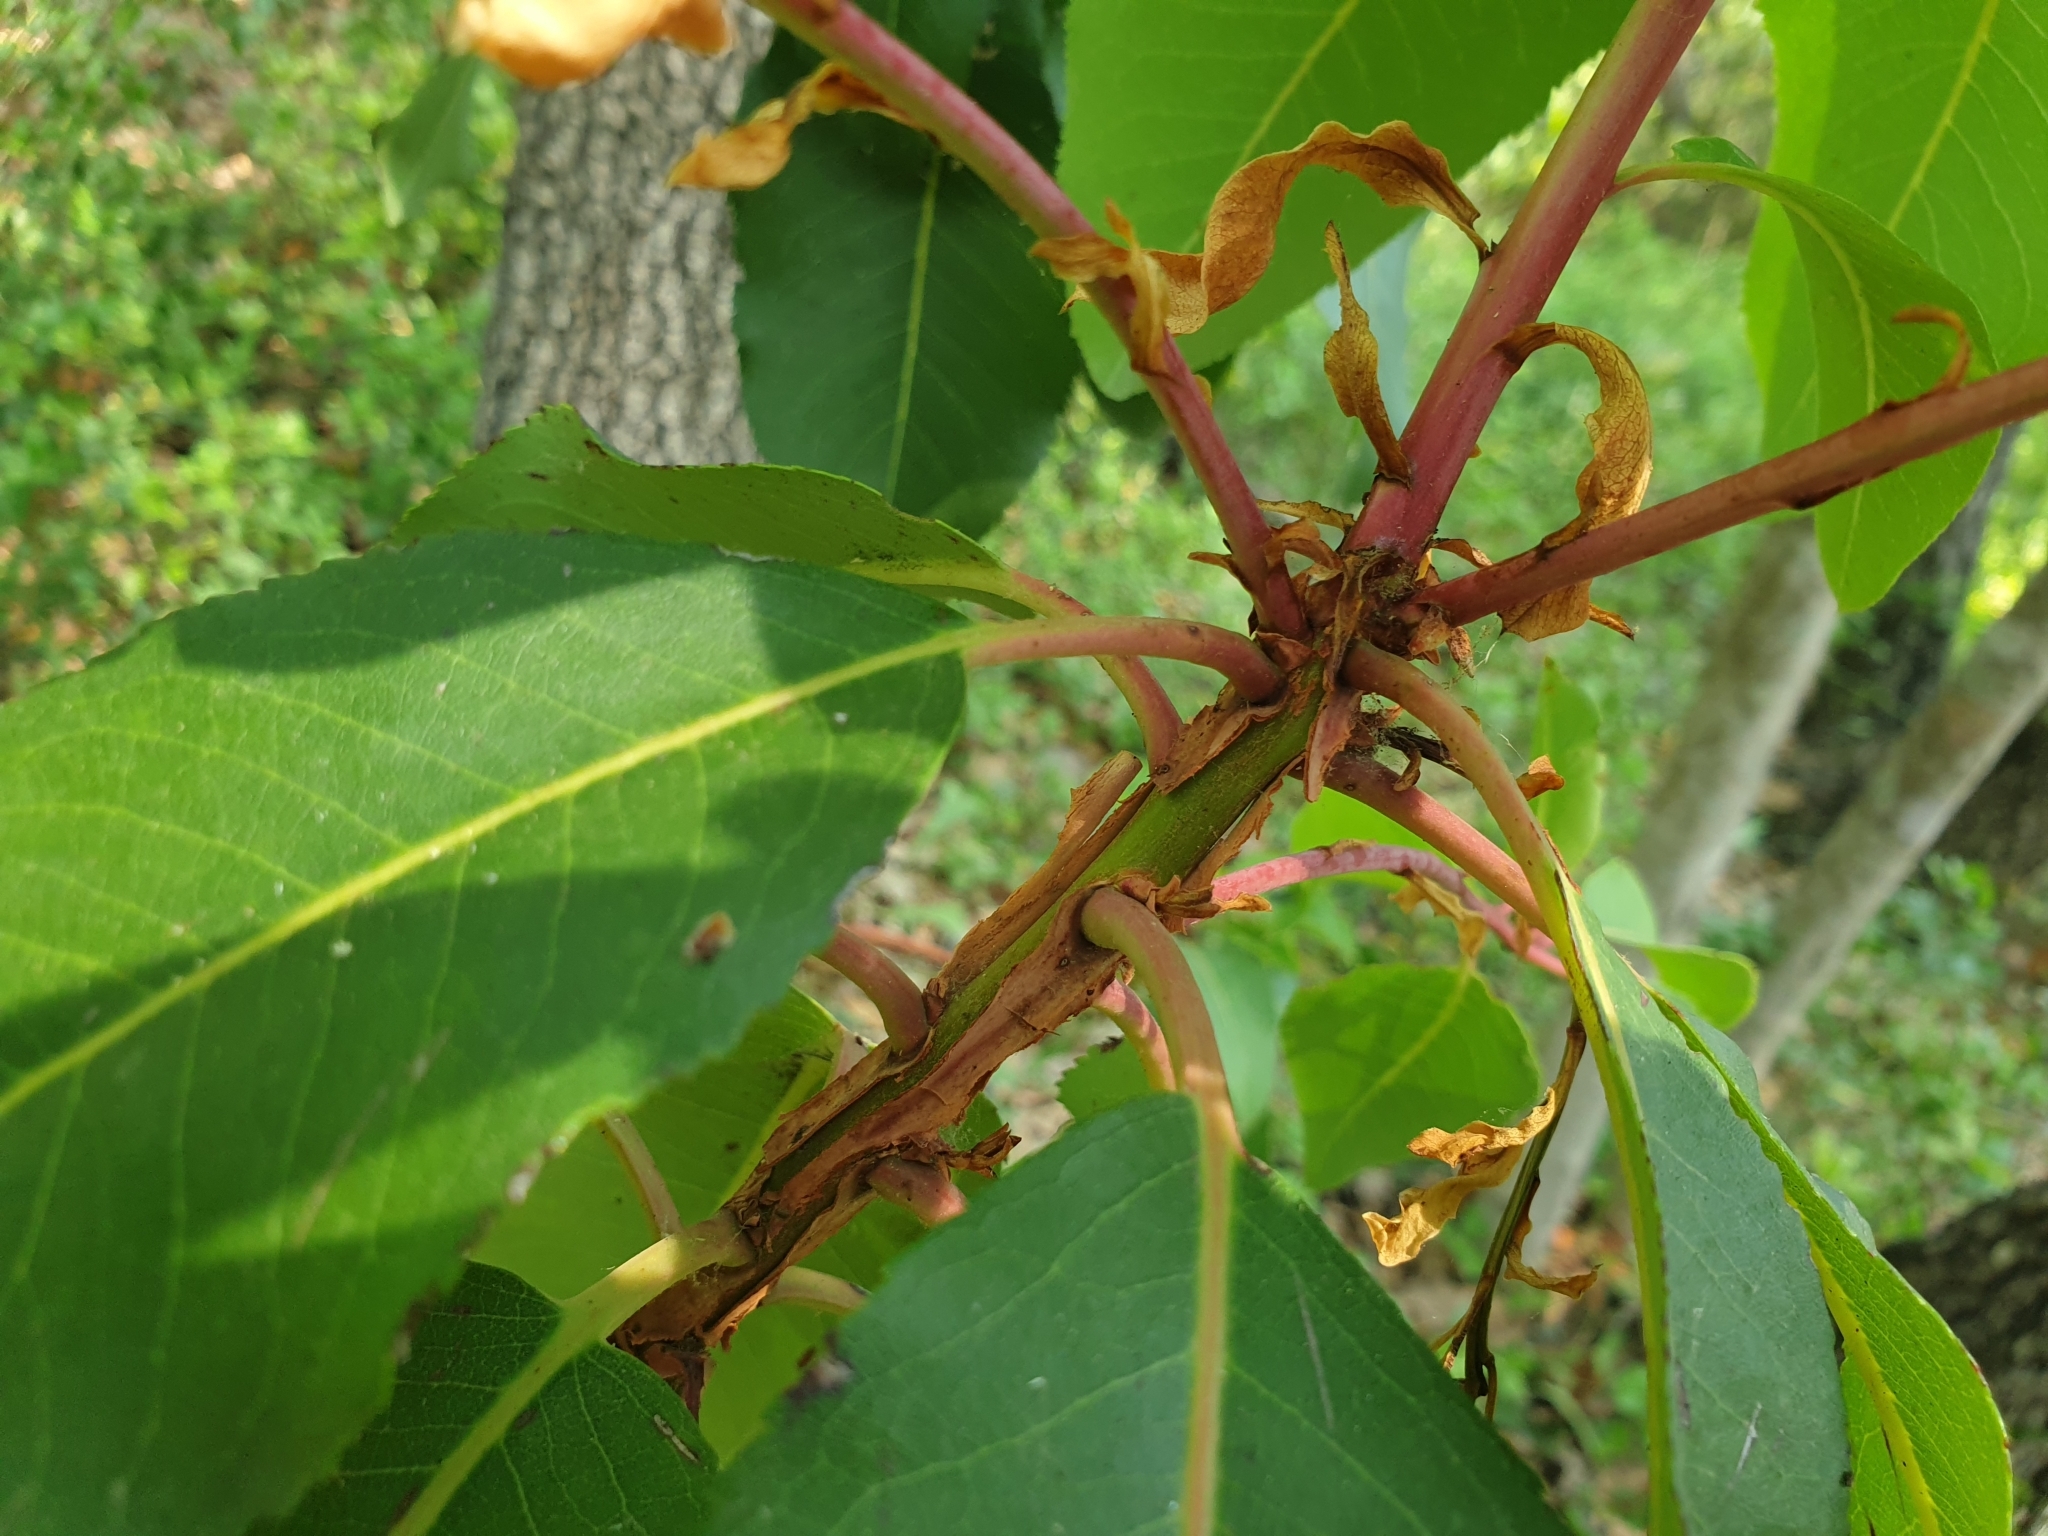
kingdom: Plantae
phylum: Tracheophyta
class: Magnoliopsida
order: Ericales
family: Ericaceae
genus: Arbutus
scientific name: Arbutus andrachne
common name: Greek strawberry tree
